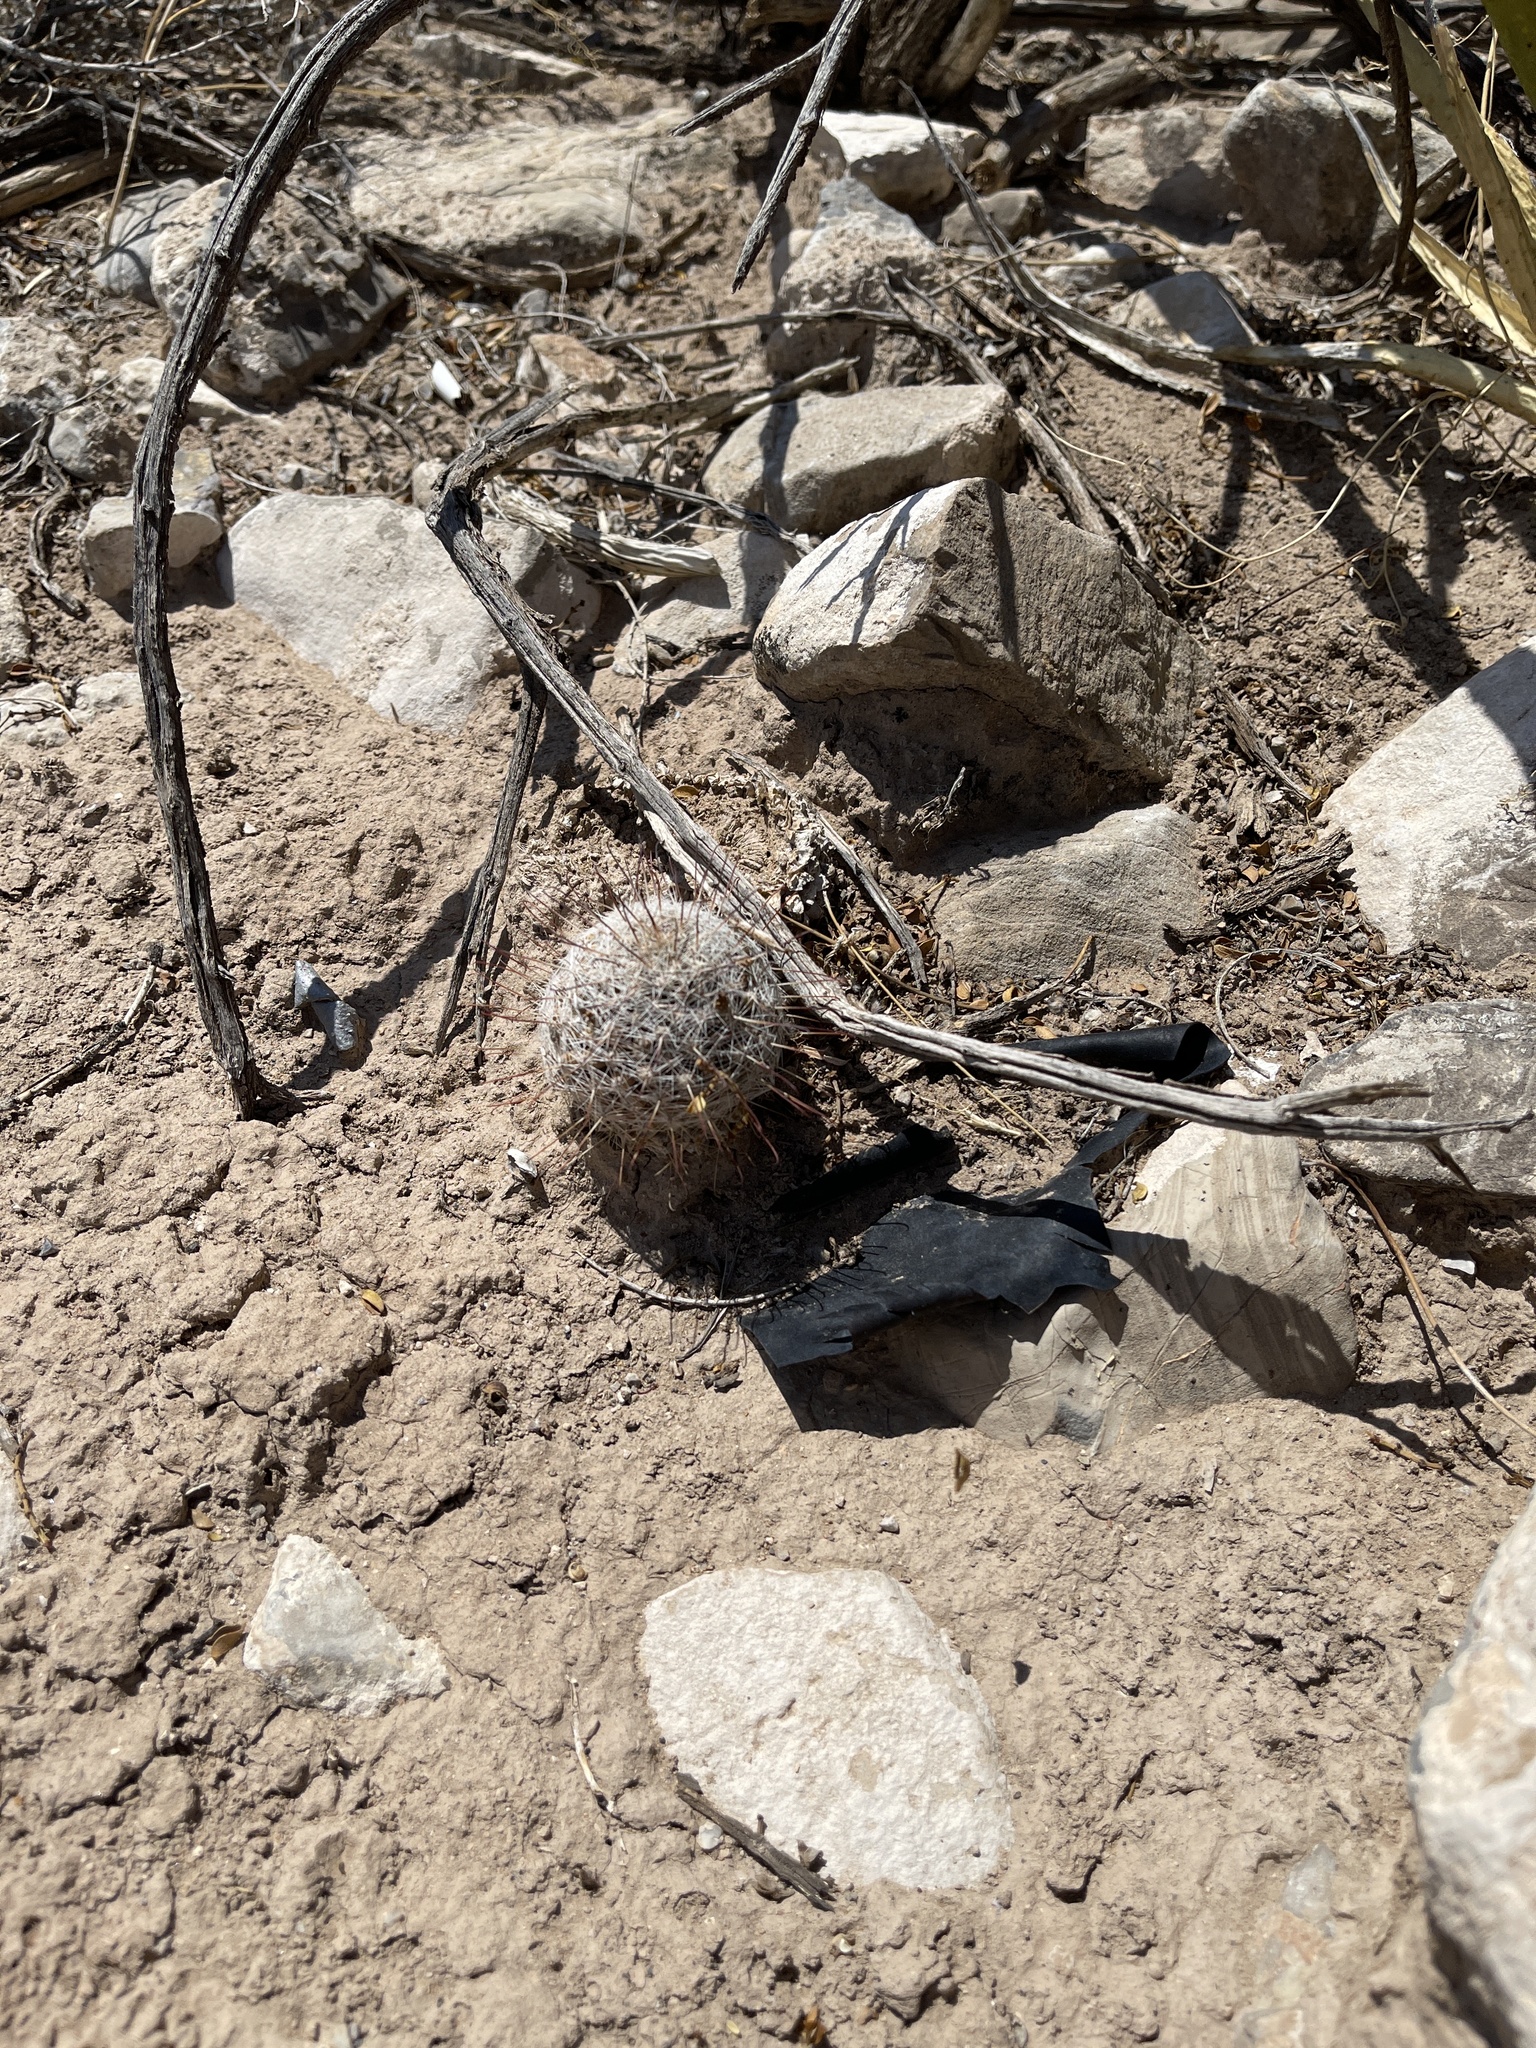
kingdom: Plantae
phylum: Tracheophyta
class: Magnoliopsida
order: Caryophyllales
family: Cactaceae
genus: Cochemiea
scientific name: Cochemiea grahamii
